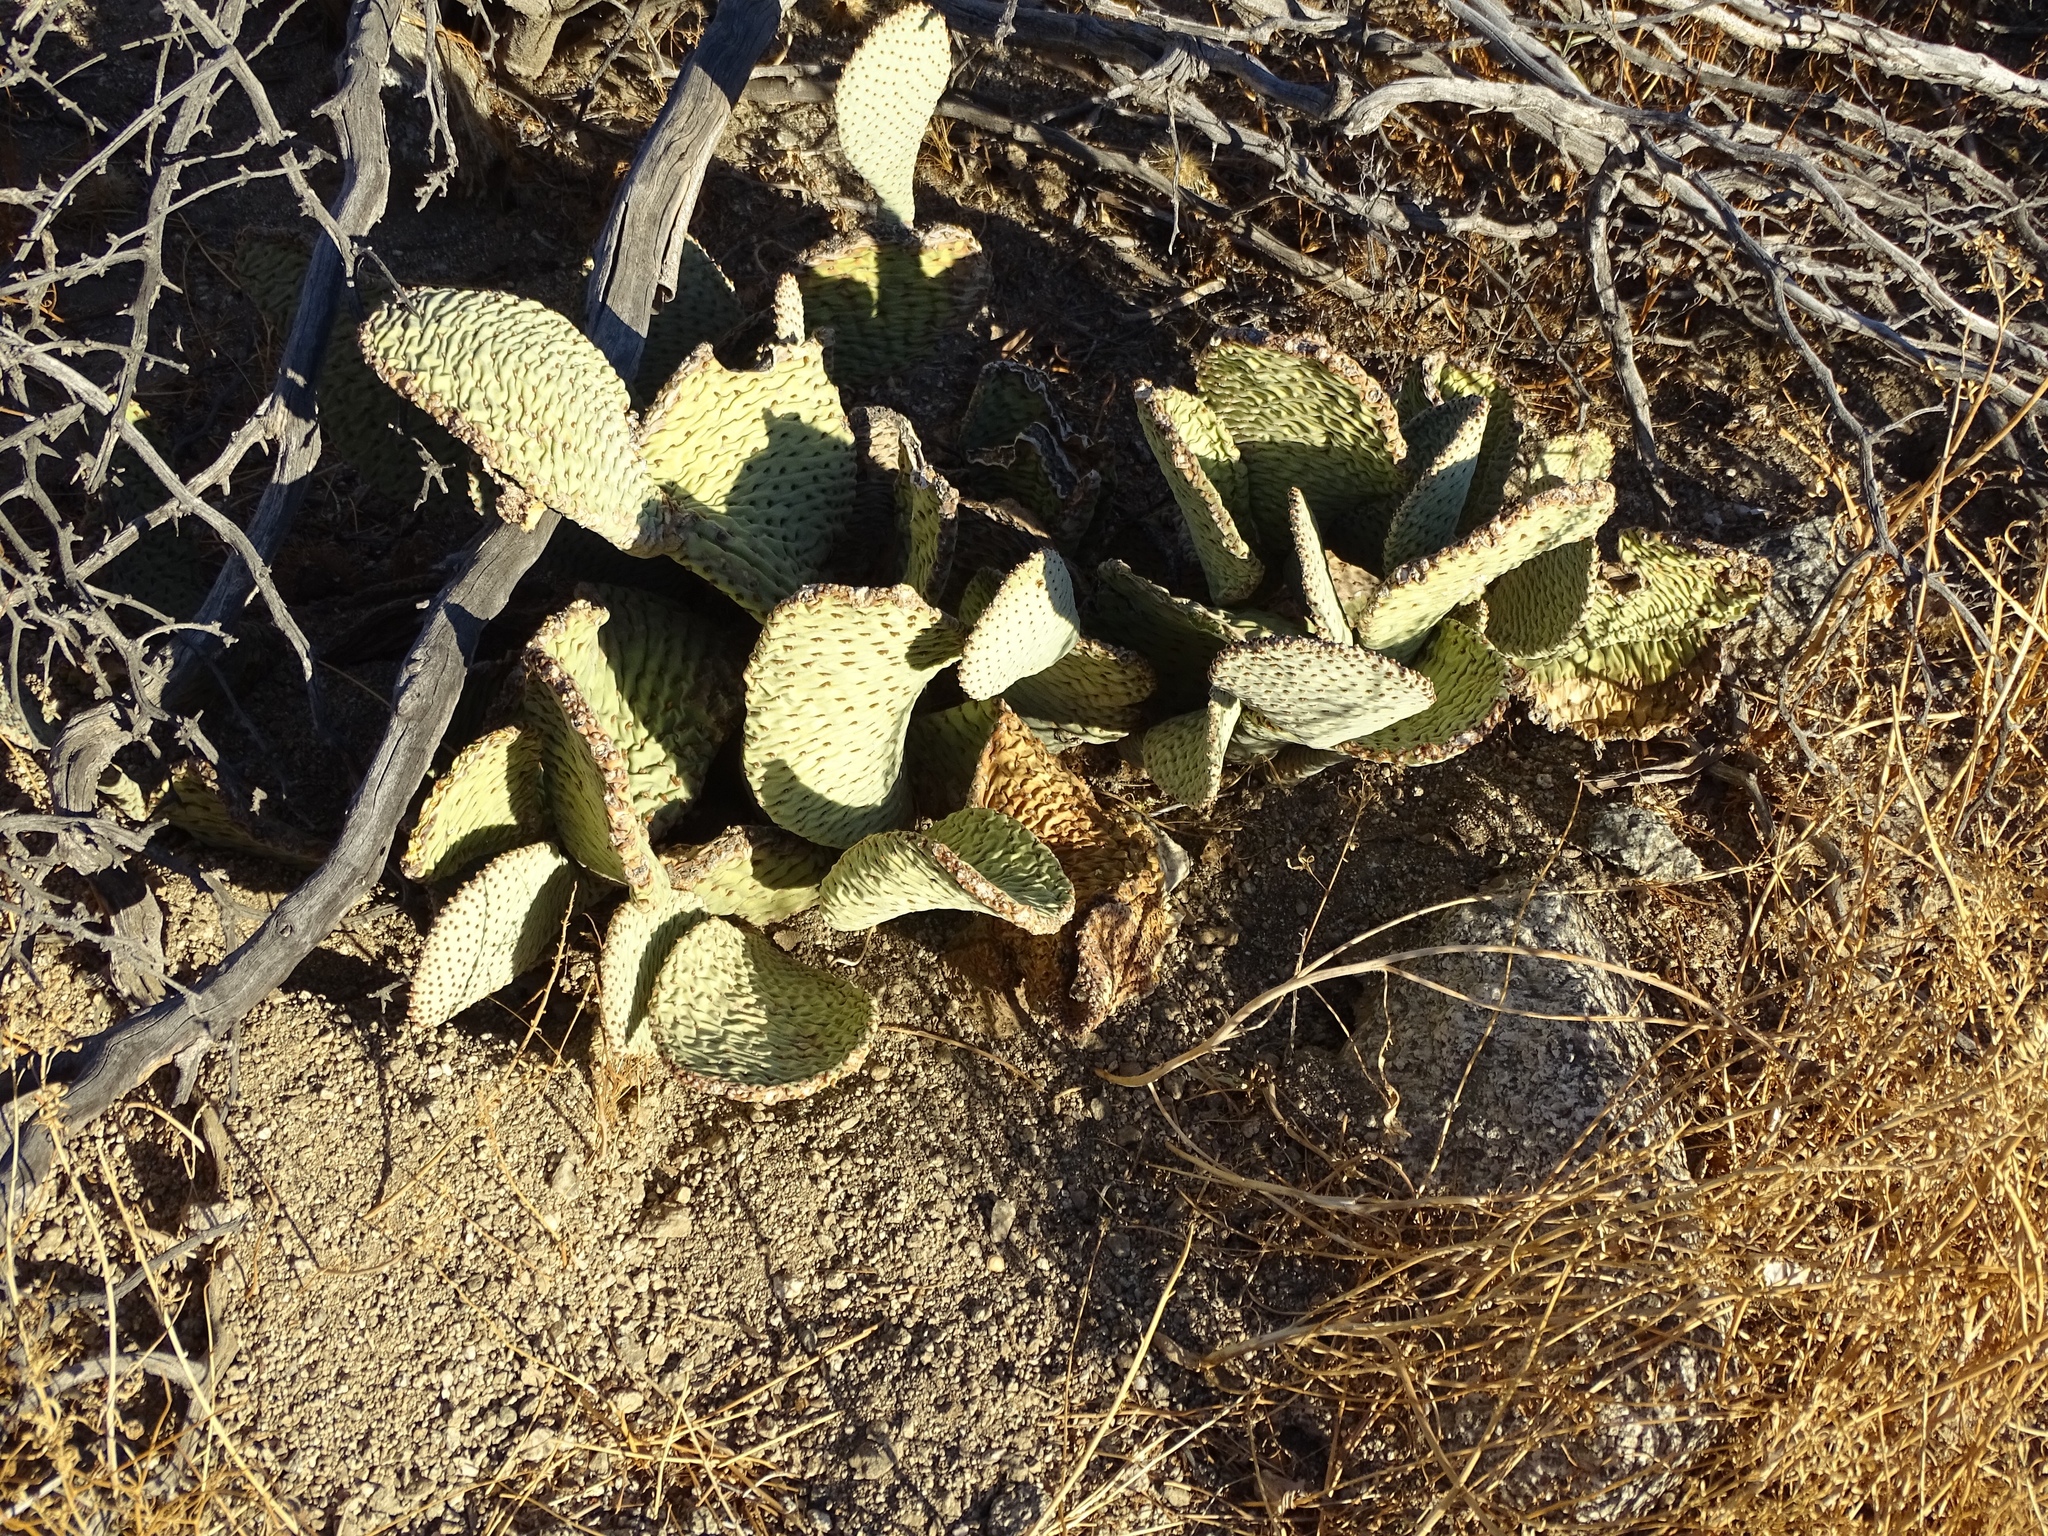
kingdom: Plantae
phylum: Tracheophyta
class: Magnoliopsida
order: Caryophyllales
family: Cactaceae
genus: Opuntia
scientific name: Opuntia basilaris
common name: Beavertail prickly-pear
